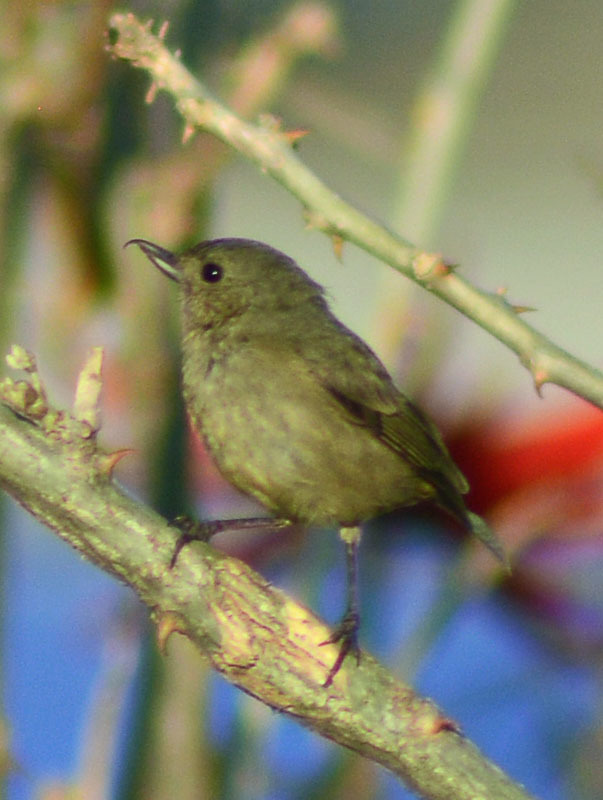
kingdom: Animalia
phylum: Chordata
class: Aves
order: Passeriformes
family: Thraupidae
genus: Diglossa
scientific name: Diglossa baritula
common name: Cinnamon-bellied flowerpiercer
